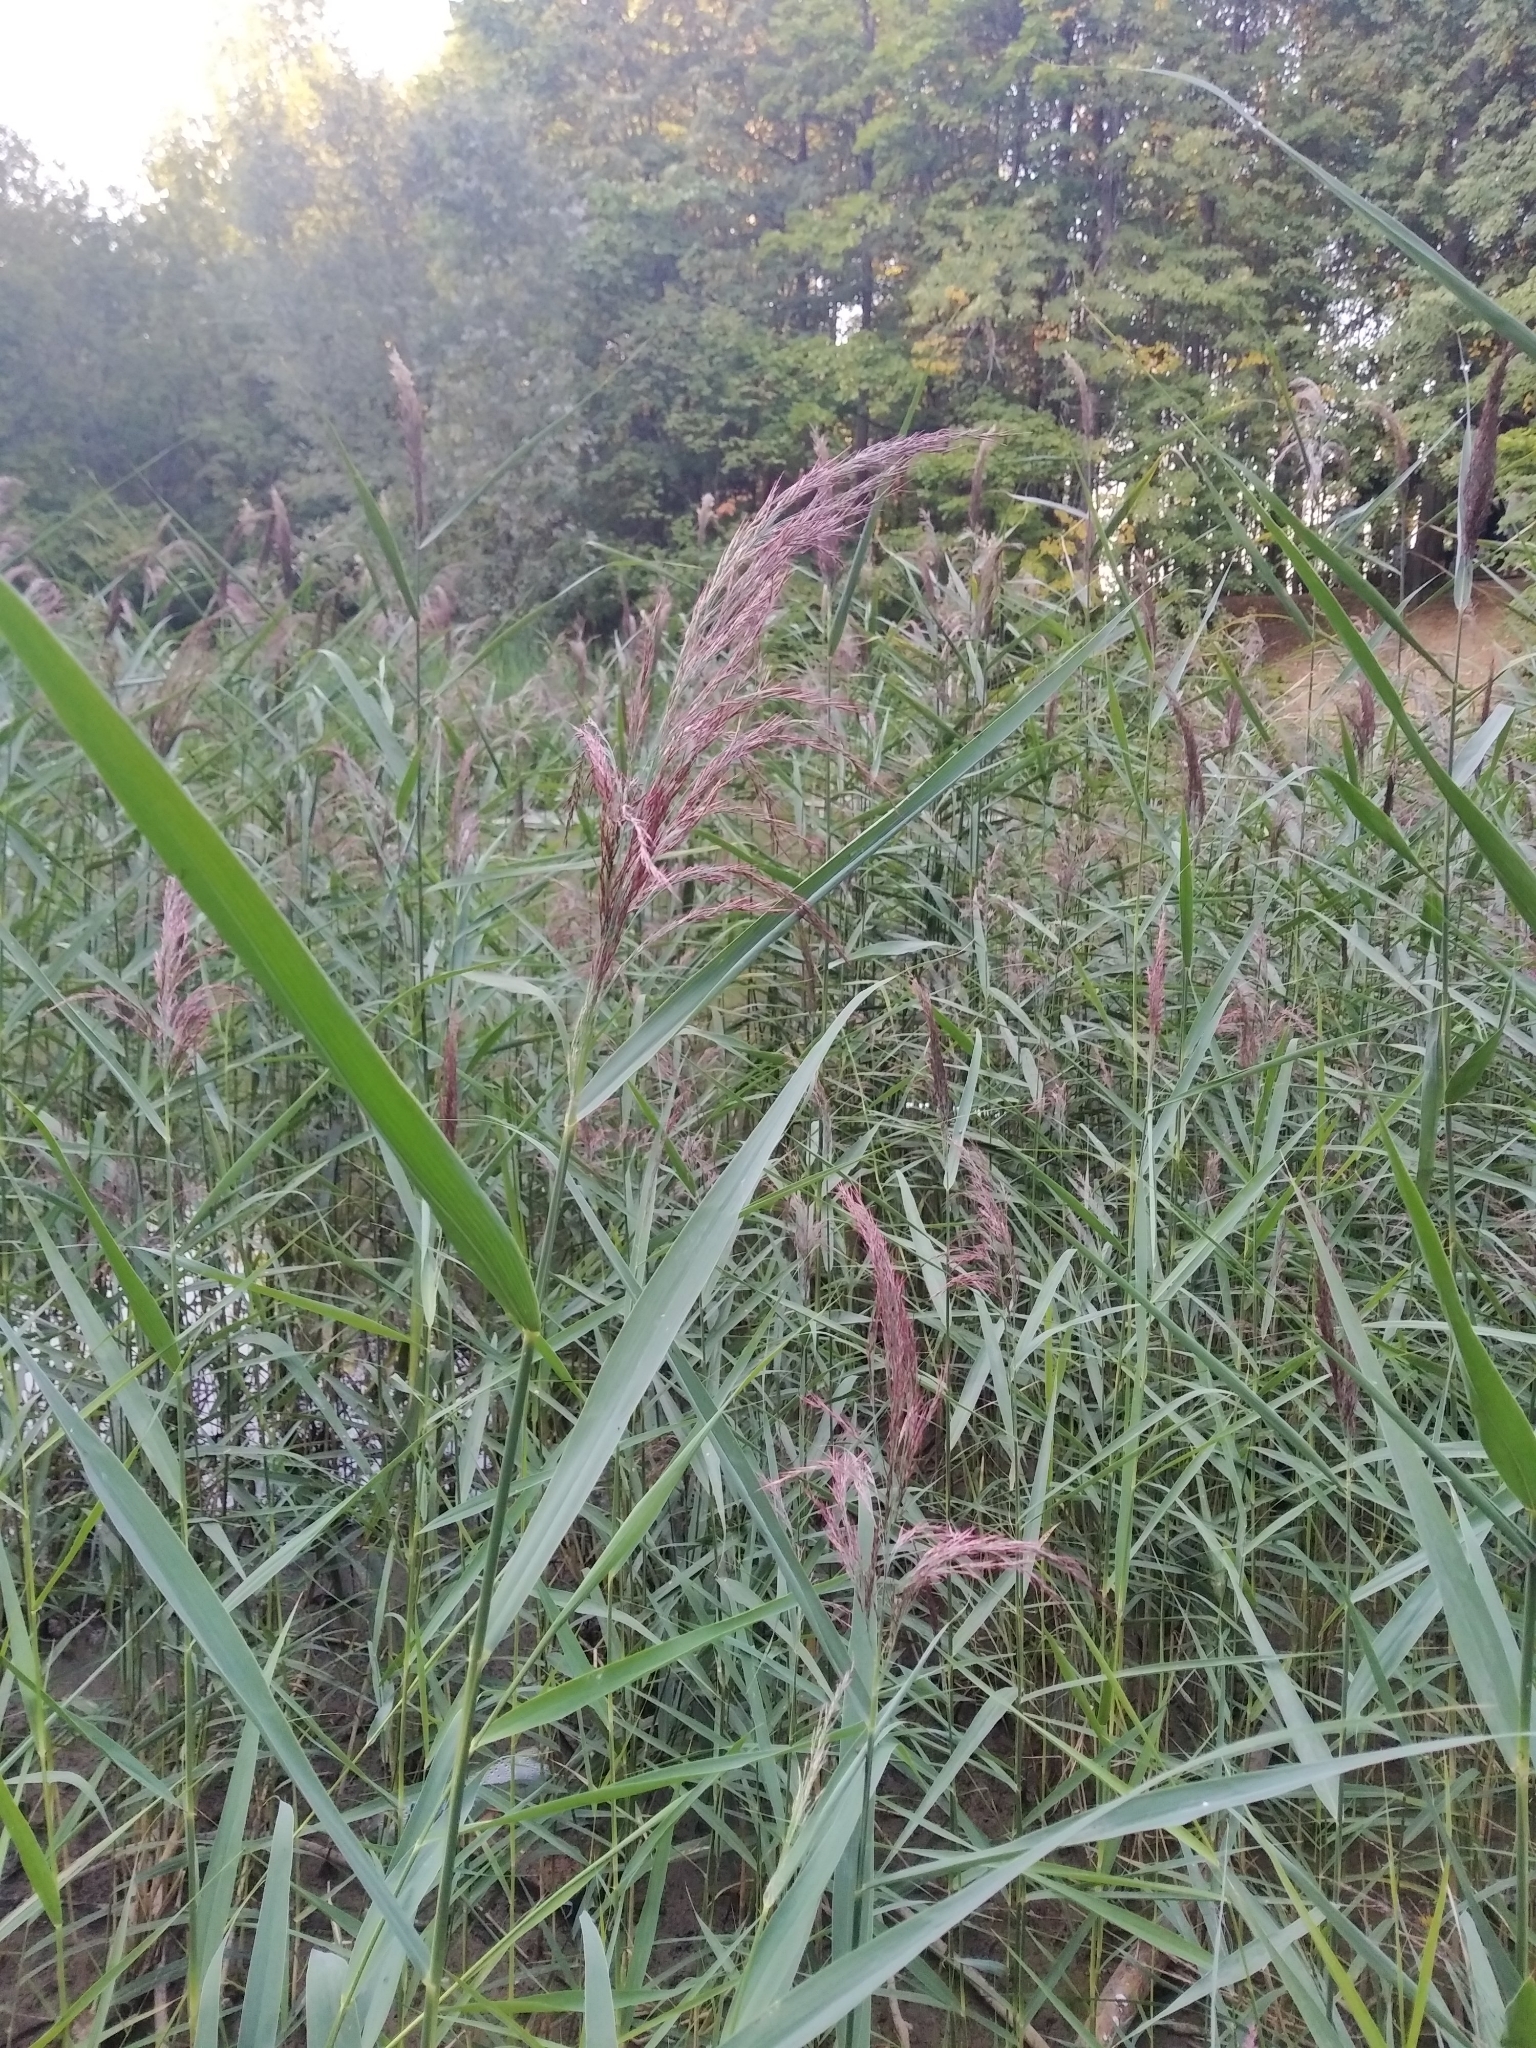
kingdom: Plantae
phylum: Tracheophyta
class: Liliopsida
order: Poales
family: Poaceae
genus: Phragmites
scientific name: Phragmites australis
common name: Common reed
